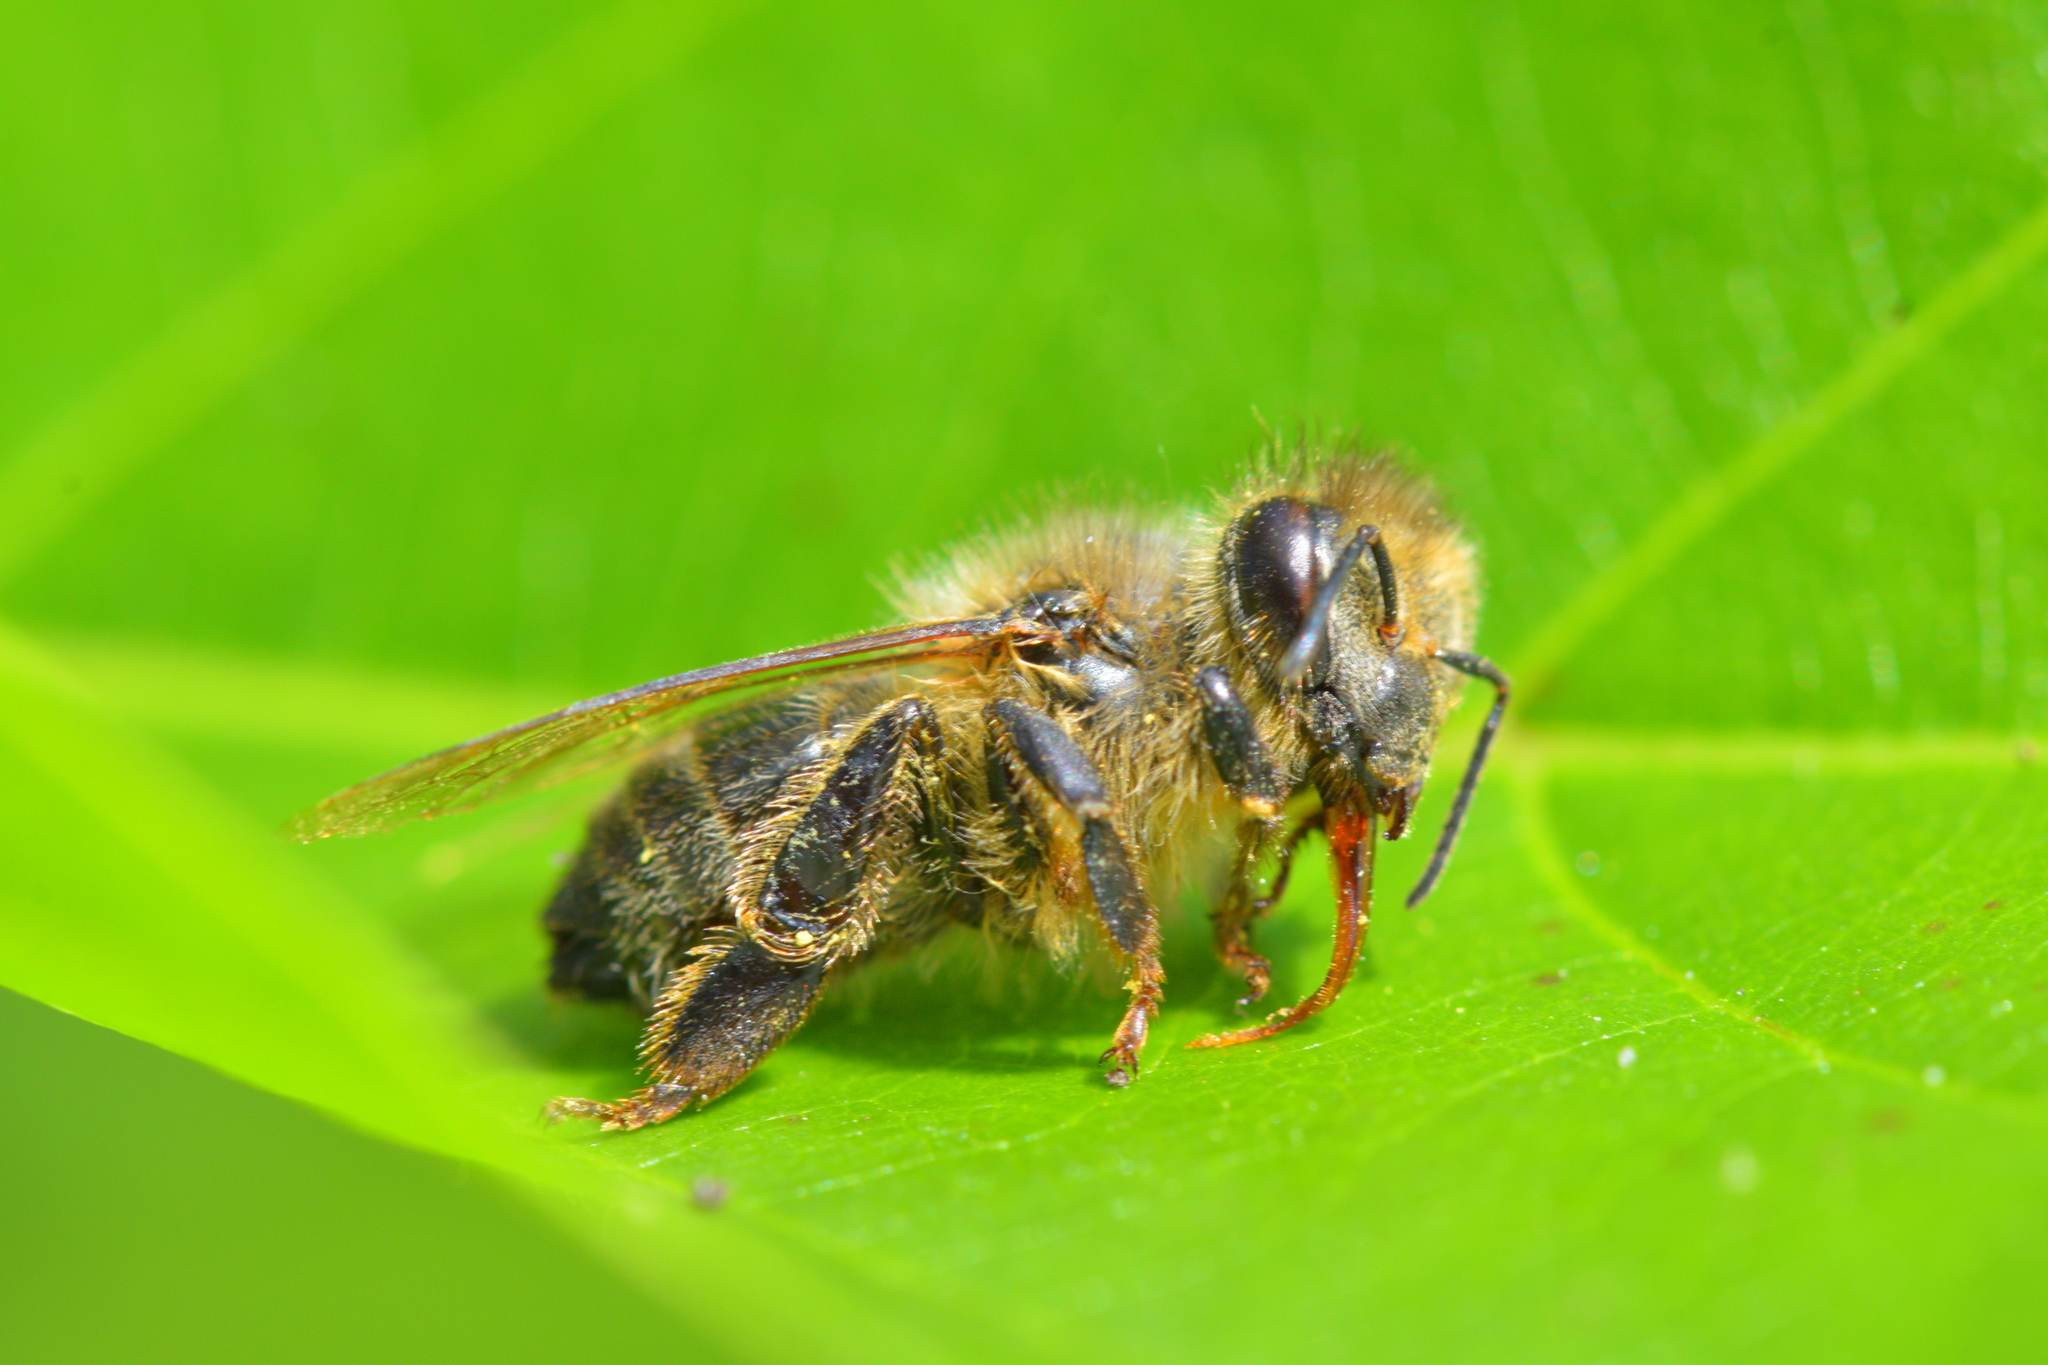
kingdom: Animalia
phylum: Arthropoda
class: Insecta
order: Hymenoptera
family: Apidae
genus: Apis
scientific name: Apis mellifera
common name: Honey bee
